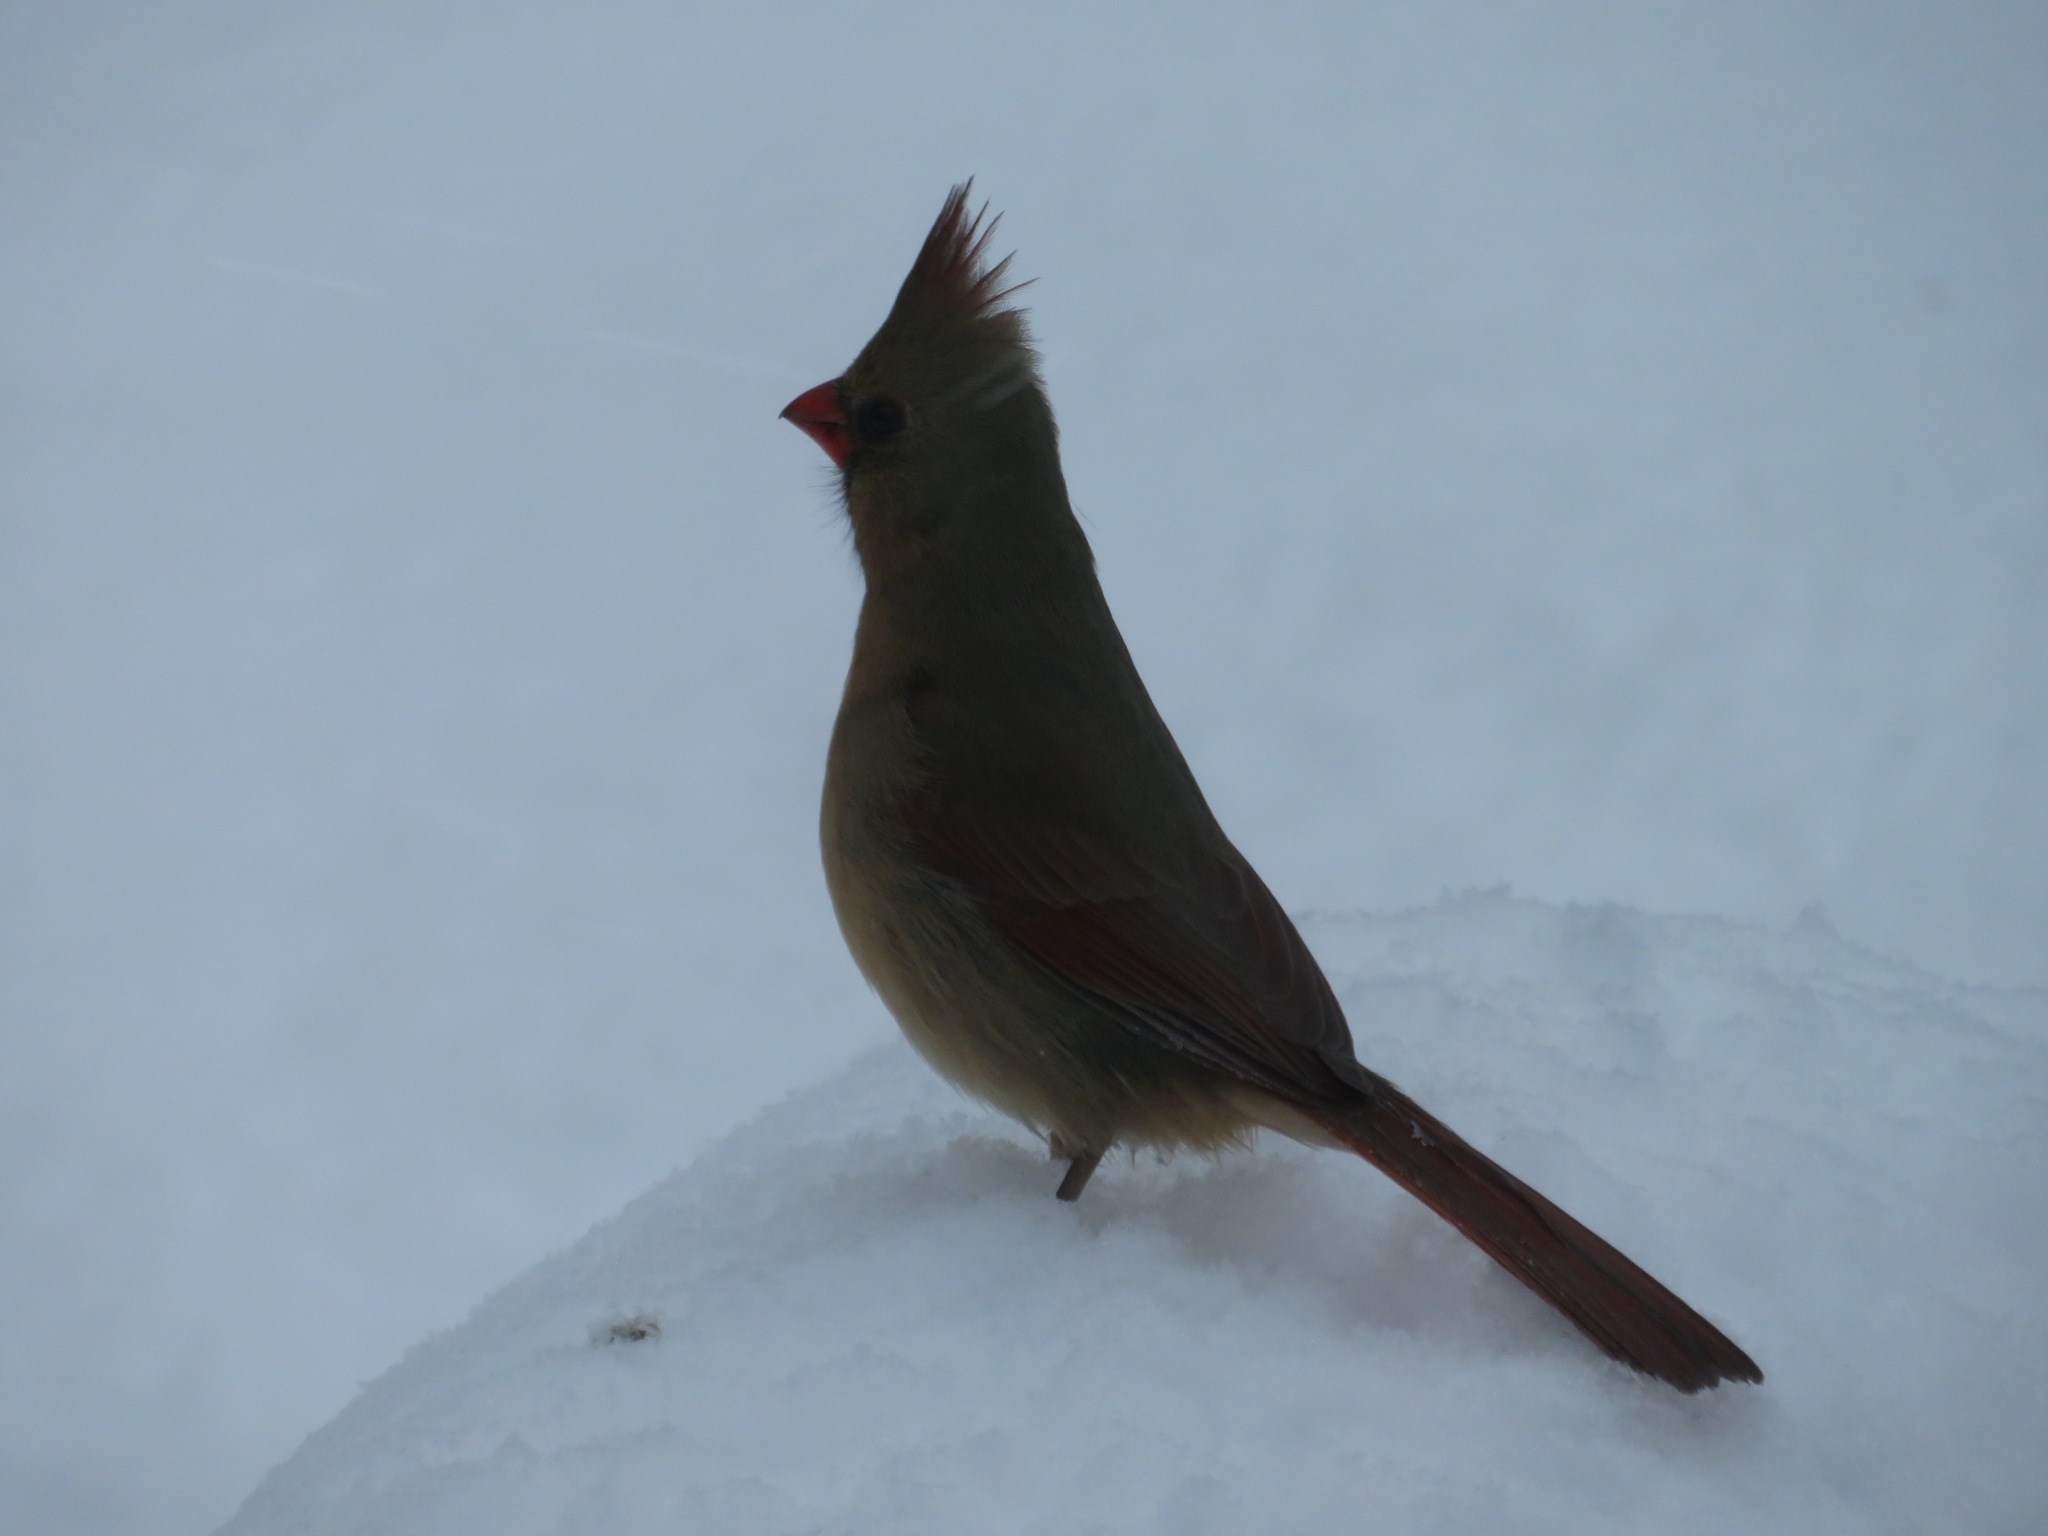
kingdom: Animalia
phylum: Chordata
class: Aves
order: Passeriformes
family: Cardinalidae
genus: Cardinalis
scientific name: Cardinalis cardinalis
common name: Northern cardinal
